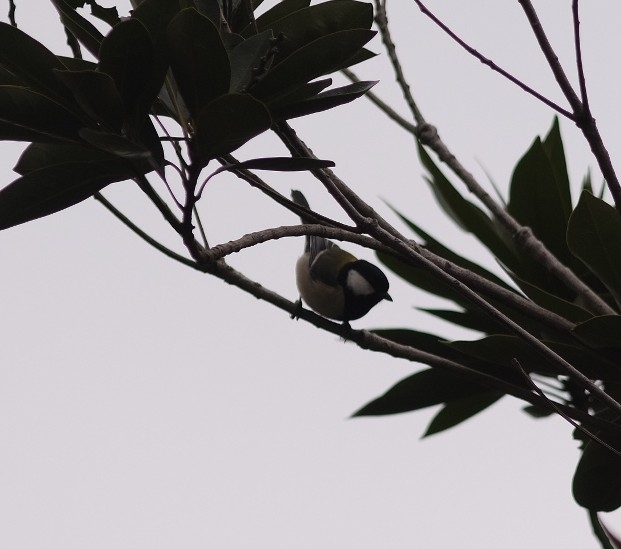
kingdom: Animalia
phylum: Chordata
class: Aves
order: Passeriformes
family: Paridae
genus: Parus
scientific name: Parus minor
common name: Japanese tit
